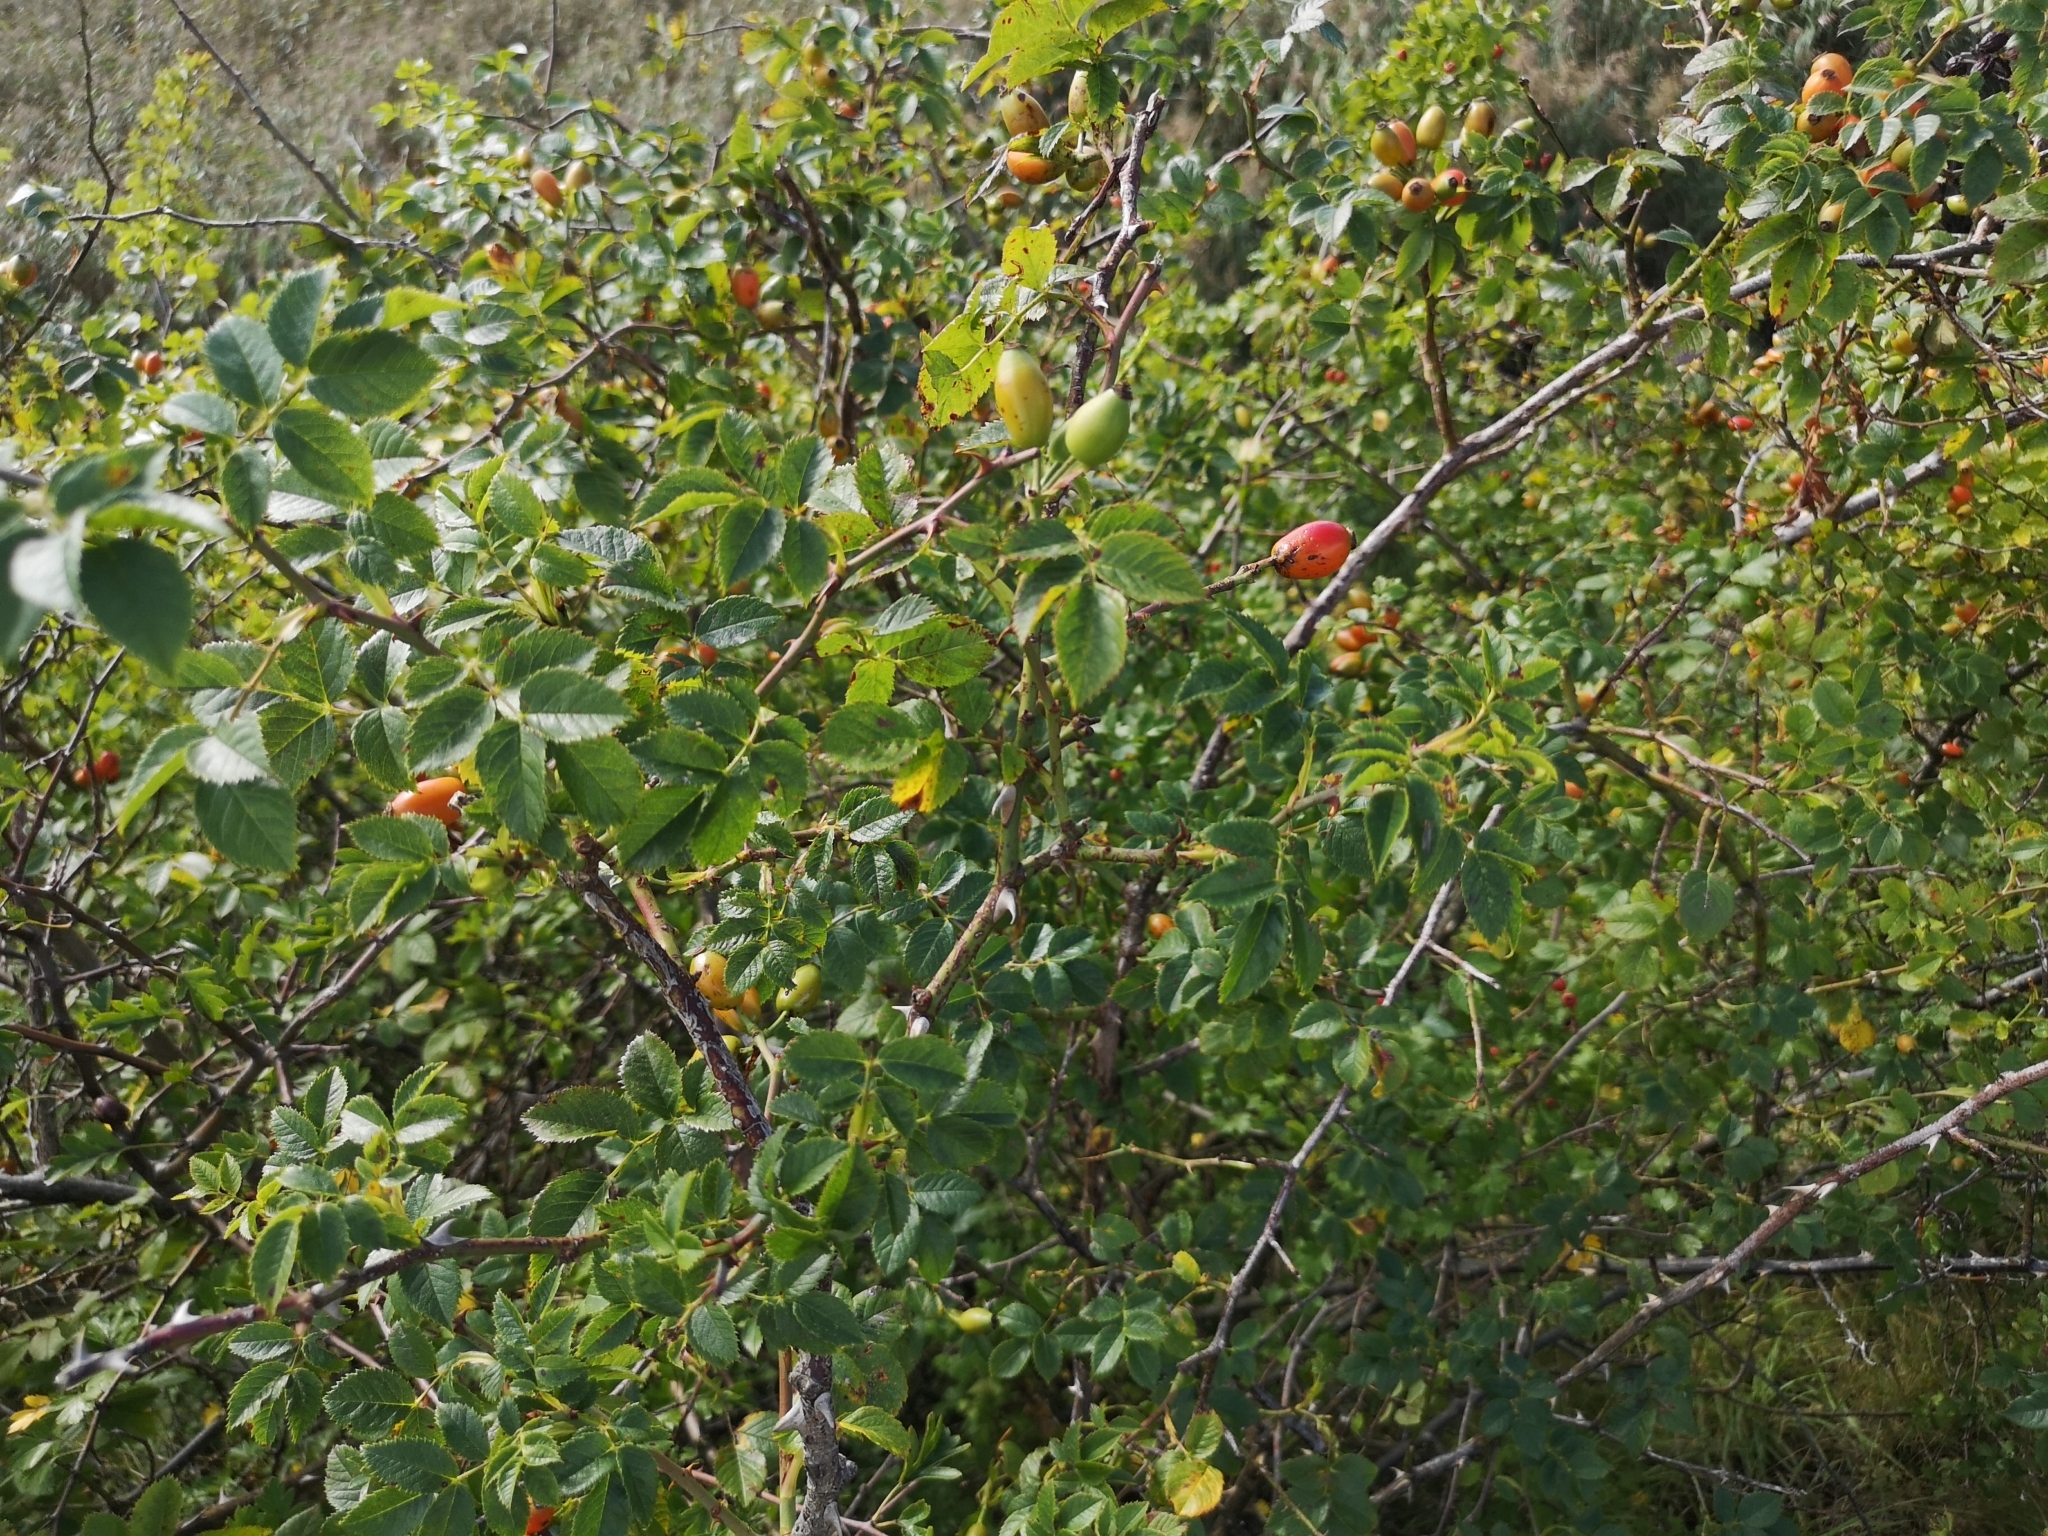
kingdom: Plantae
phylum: Tracheophyta
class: Magnoliopsida
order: Rosales
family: Rosaceae
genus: Rosa
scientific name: Rosa canina
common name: Dog rose
